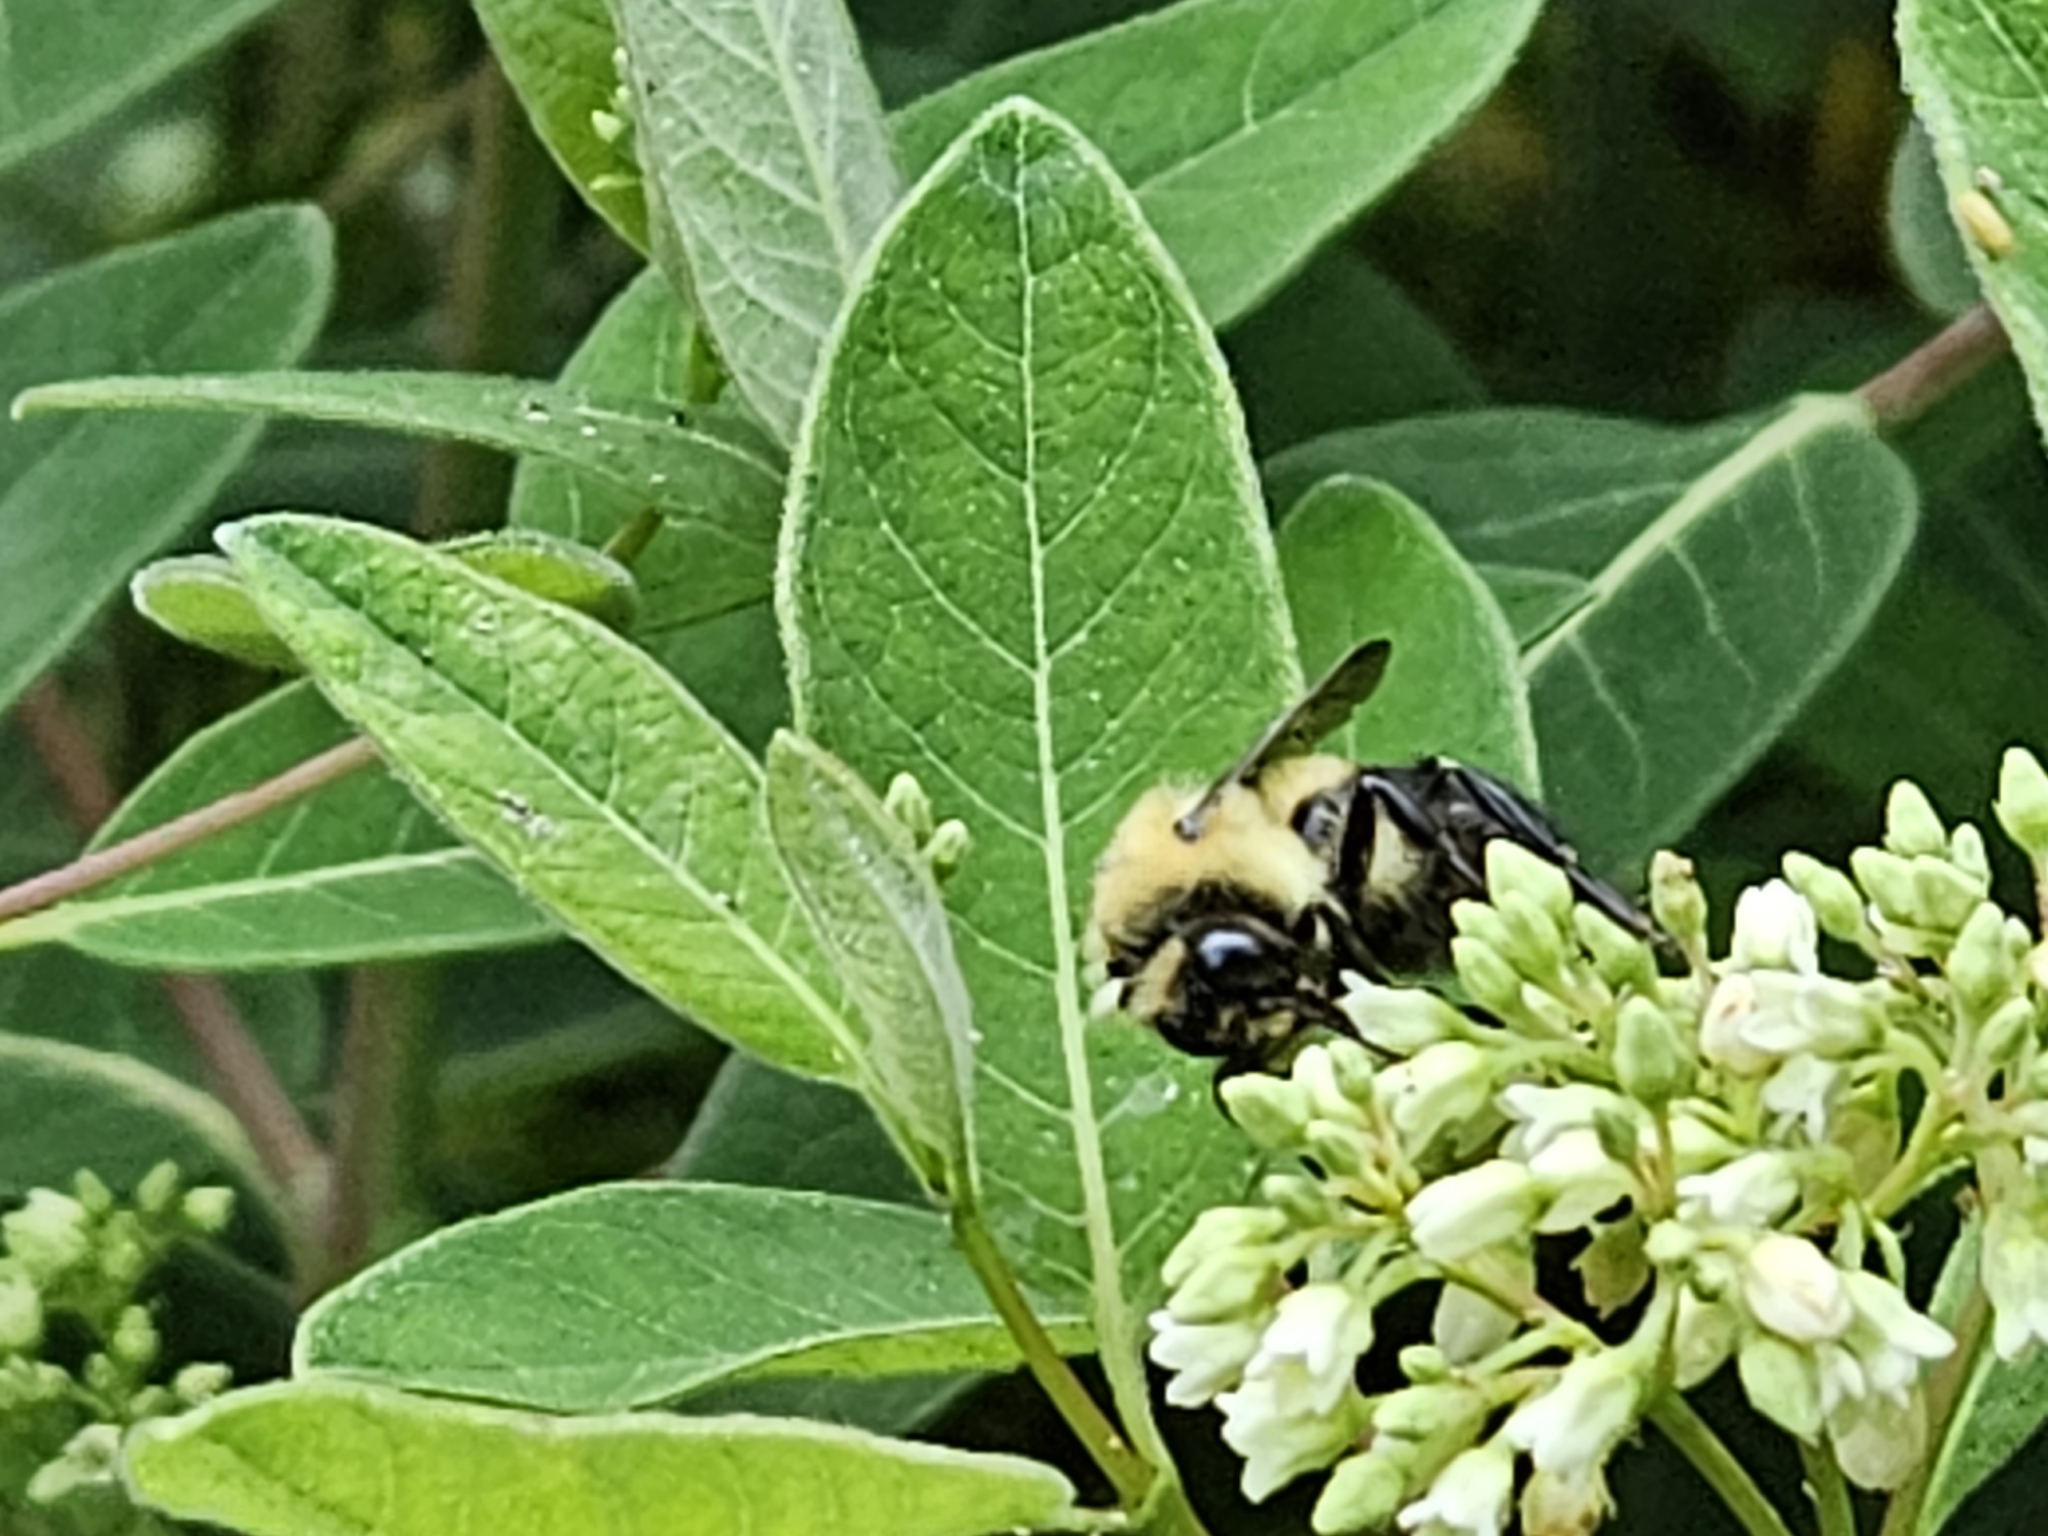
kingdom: Animalia
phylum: Arthropoda
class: Insecta
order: Hymenoptera
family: Apidae
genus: Bombus
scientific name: Bombus griseocollis
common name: Brown-belted bumble bee
